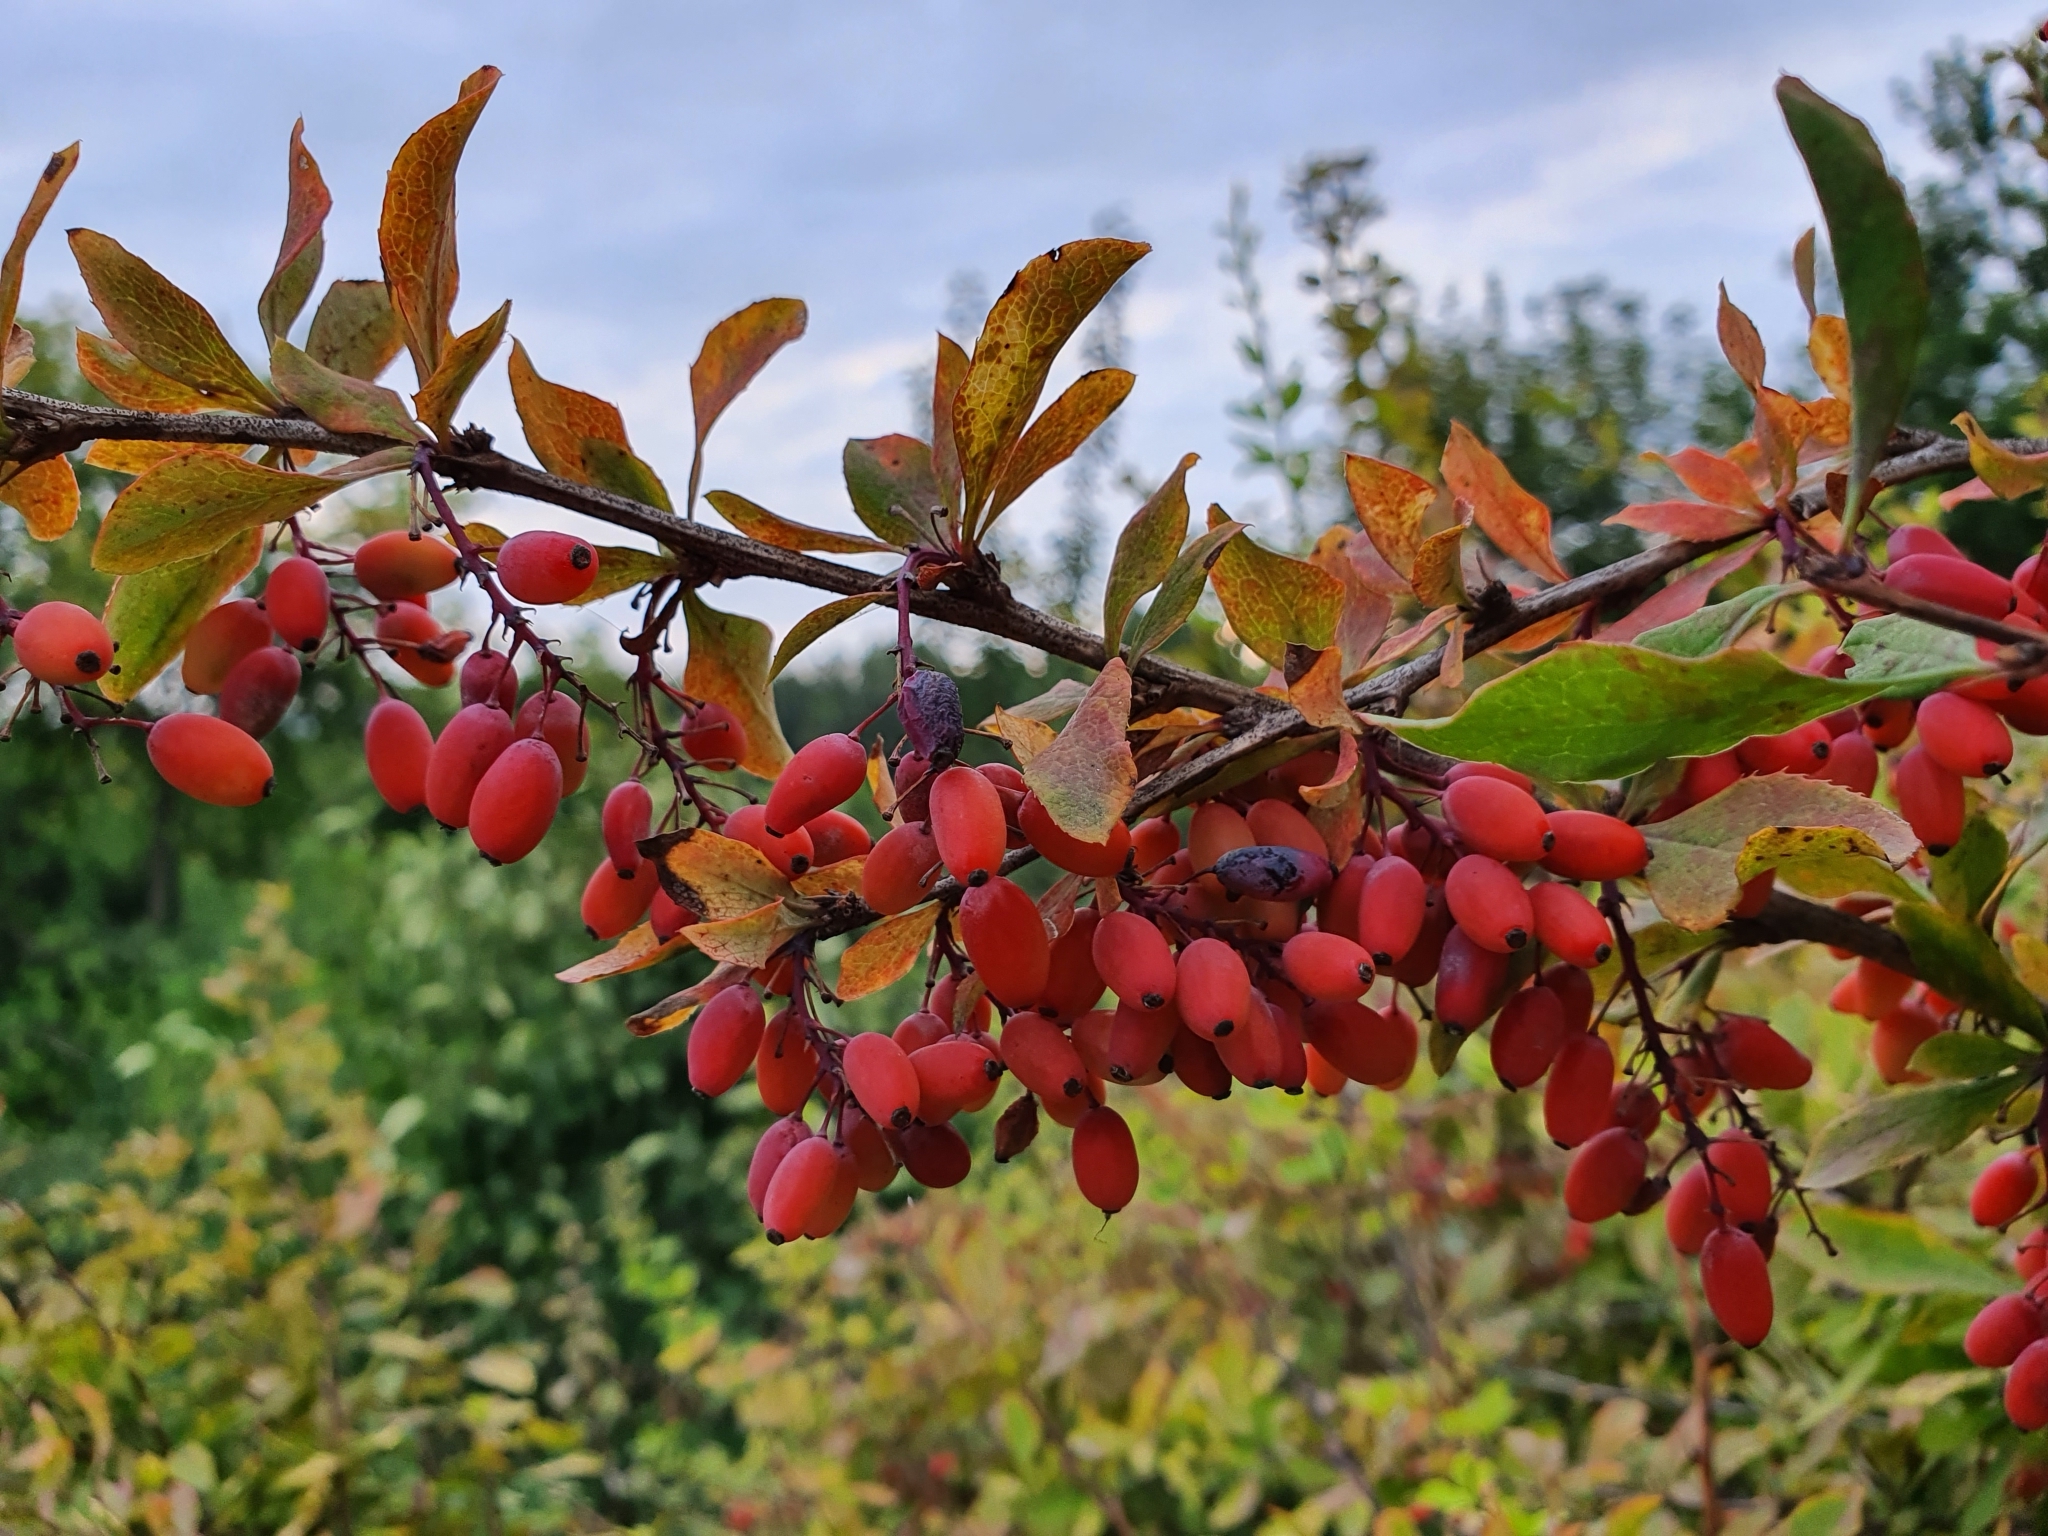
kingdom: Plantae
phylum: Tracheophyta
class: Magnoliopsida
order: Ranunculales
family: Berberidaceae
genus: Berberis
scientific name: Berberis vulgaris
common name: Barberry
